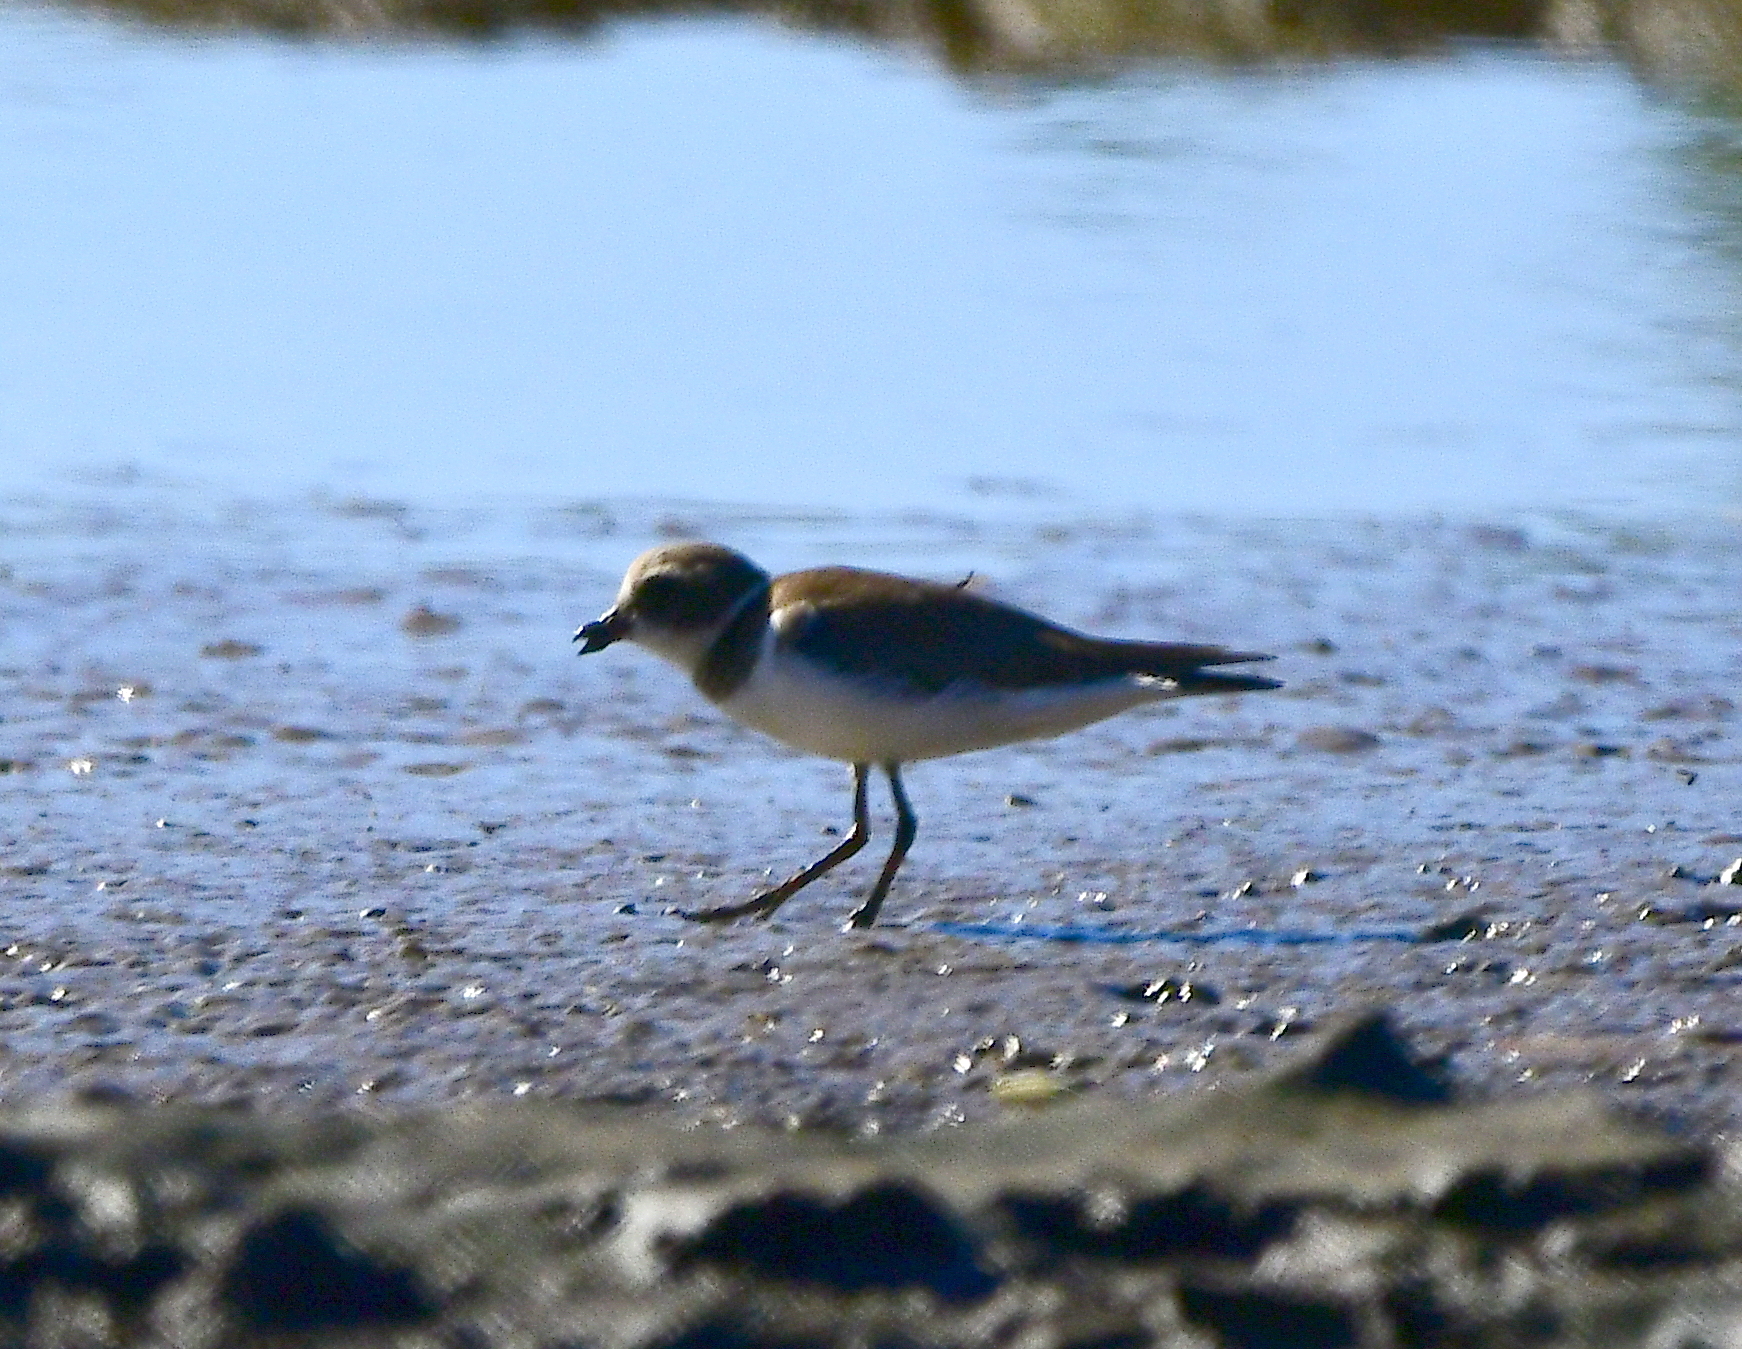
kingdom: Animalia
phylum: Chordata
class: Aves
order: Charadriiformes
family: Charadriidae
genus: Charadrius
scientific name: Charadrius semipalmatus
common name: Semipalmated plover
